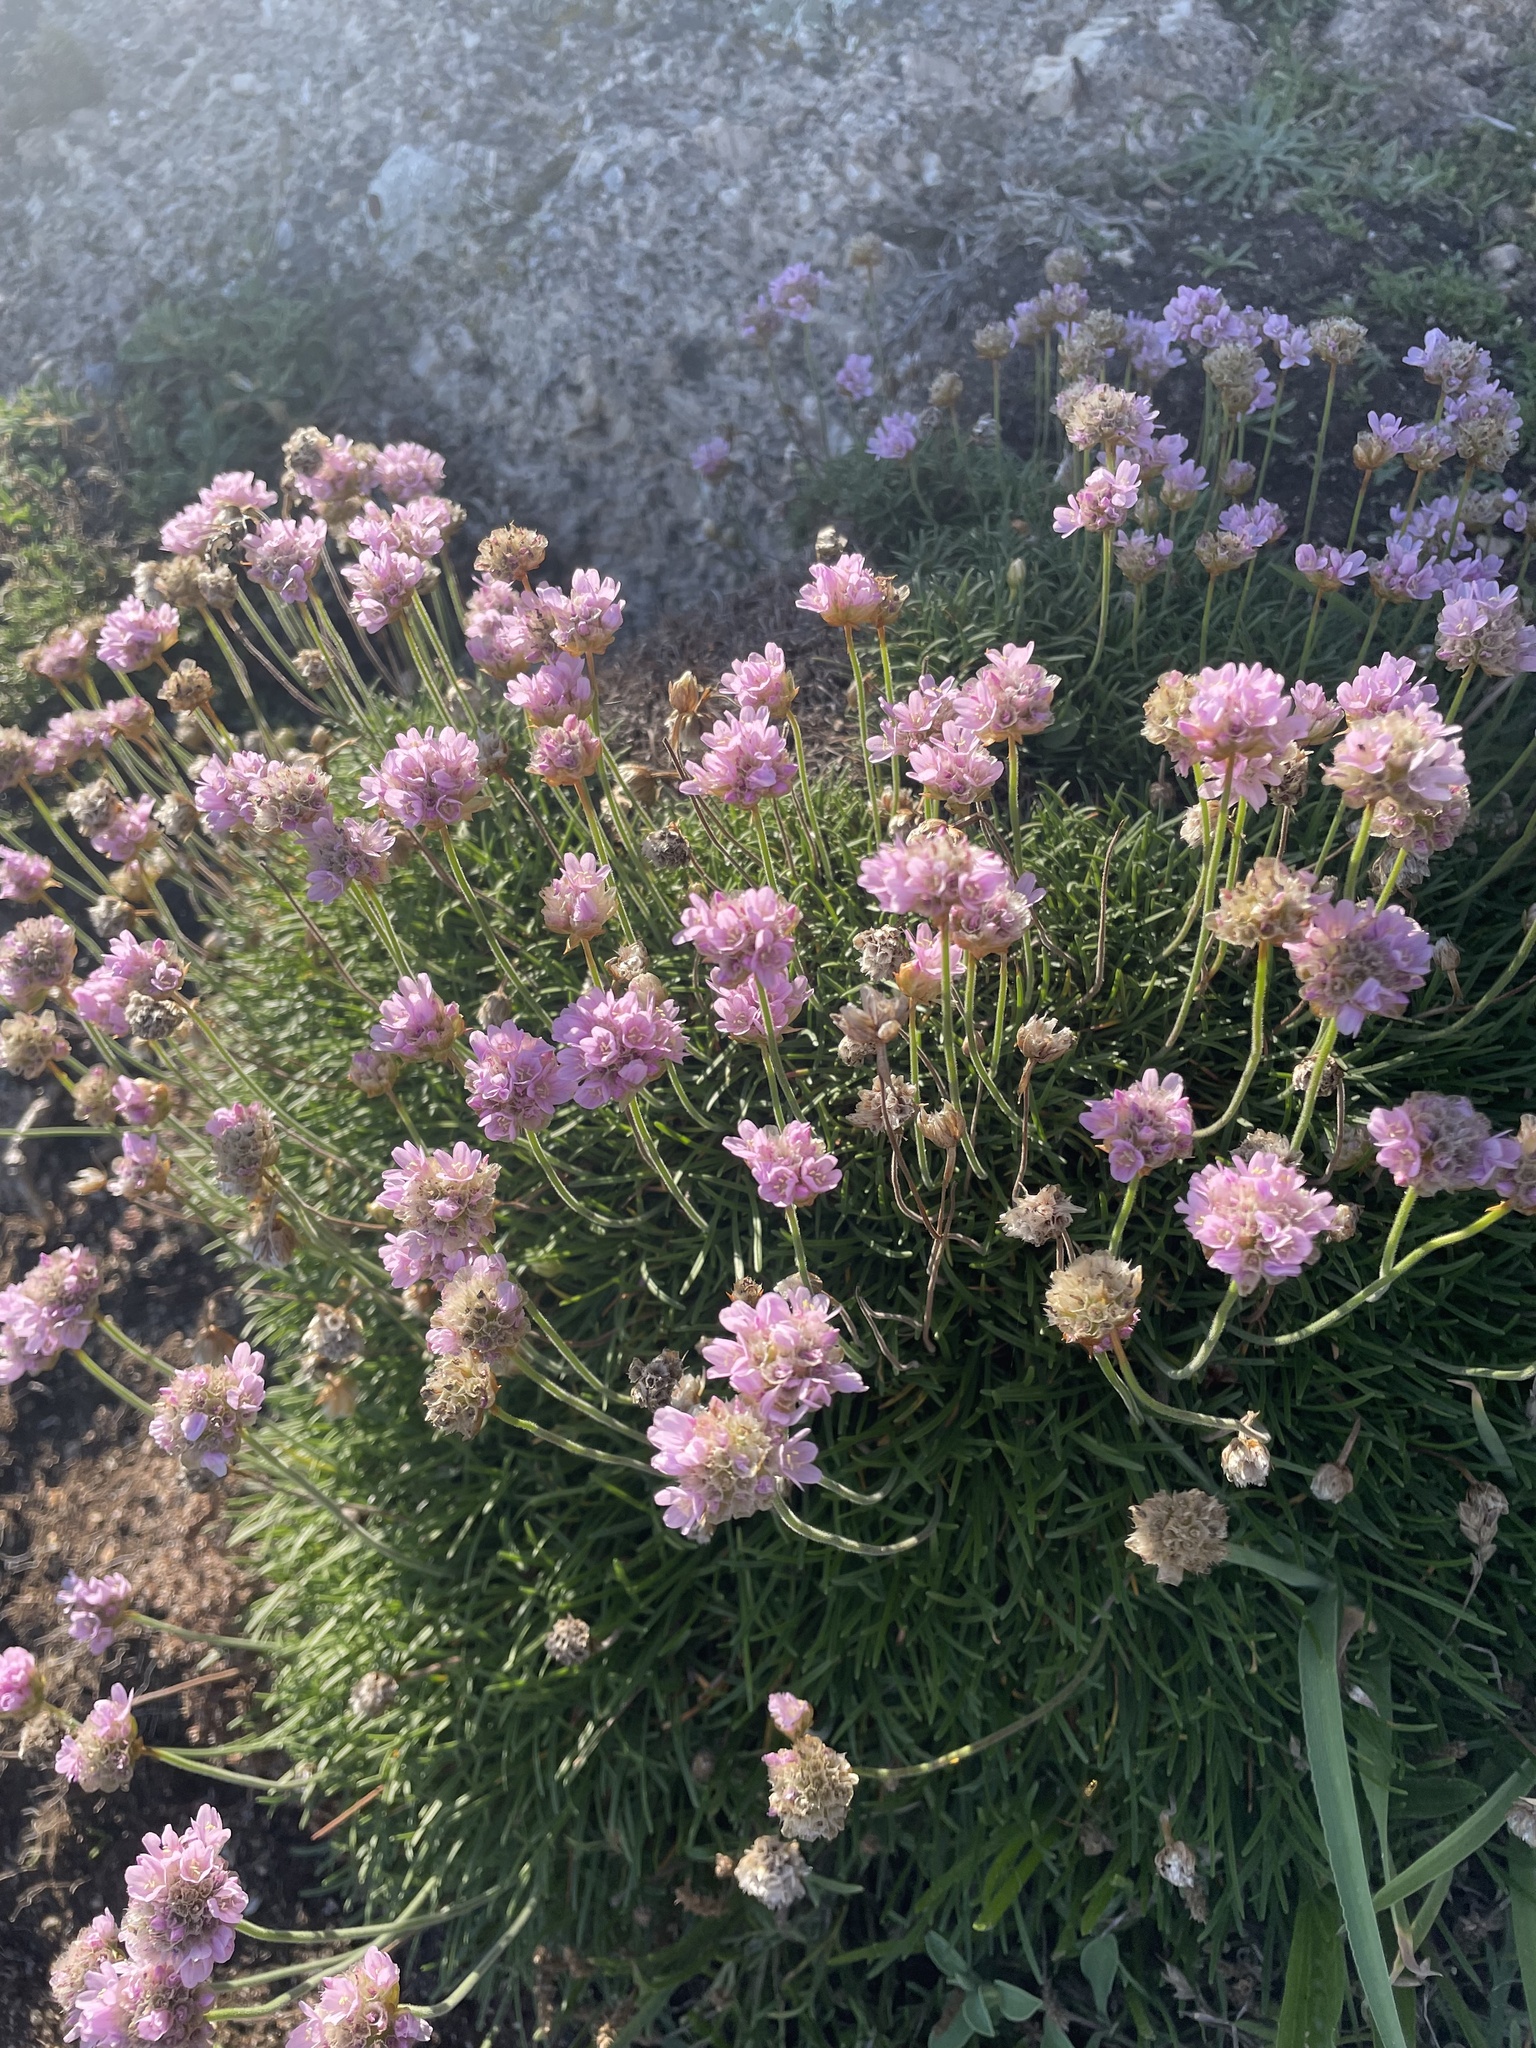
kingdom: Plantae
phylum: Tracheophyta
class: Magnoliopsida
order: Caryophyllales
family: Plumbaginaceae
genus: Armeria
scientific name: Armeria maritima
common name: Thrift
